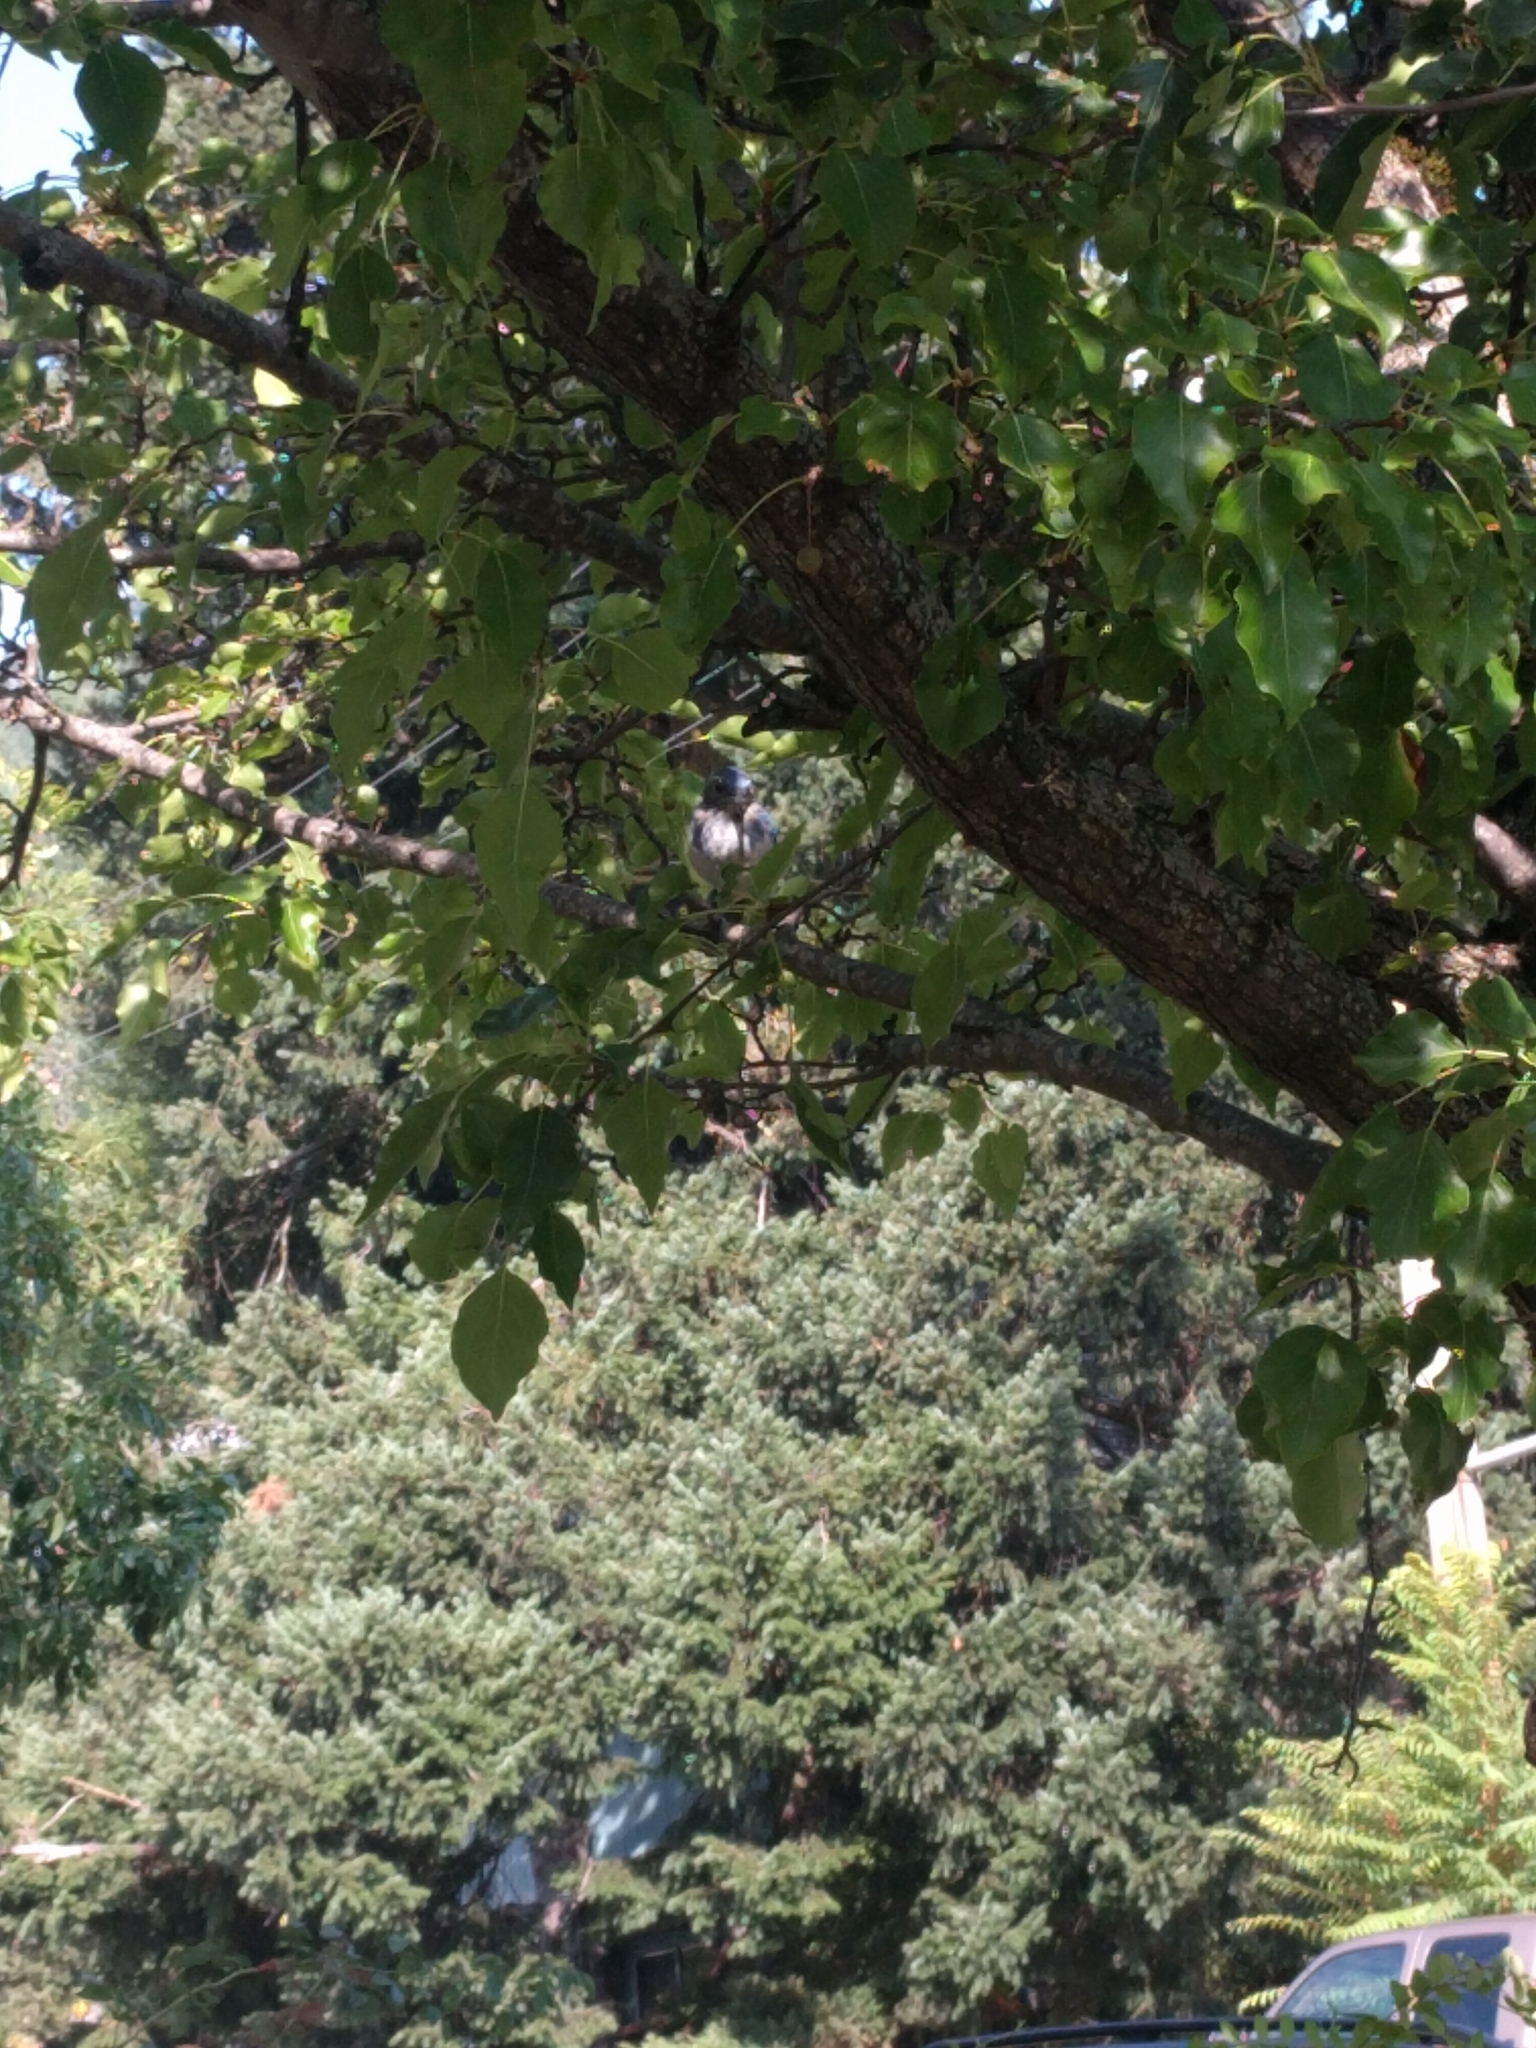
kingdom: Animalia
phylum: Chordata
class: Aves
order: Passeriformes
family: Corvidae
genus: Aphelocoma
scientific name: Aphelocoma californica
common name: California scrub-jay
